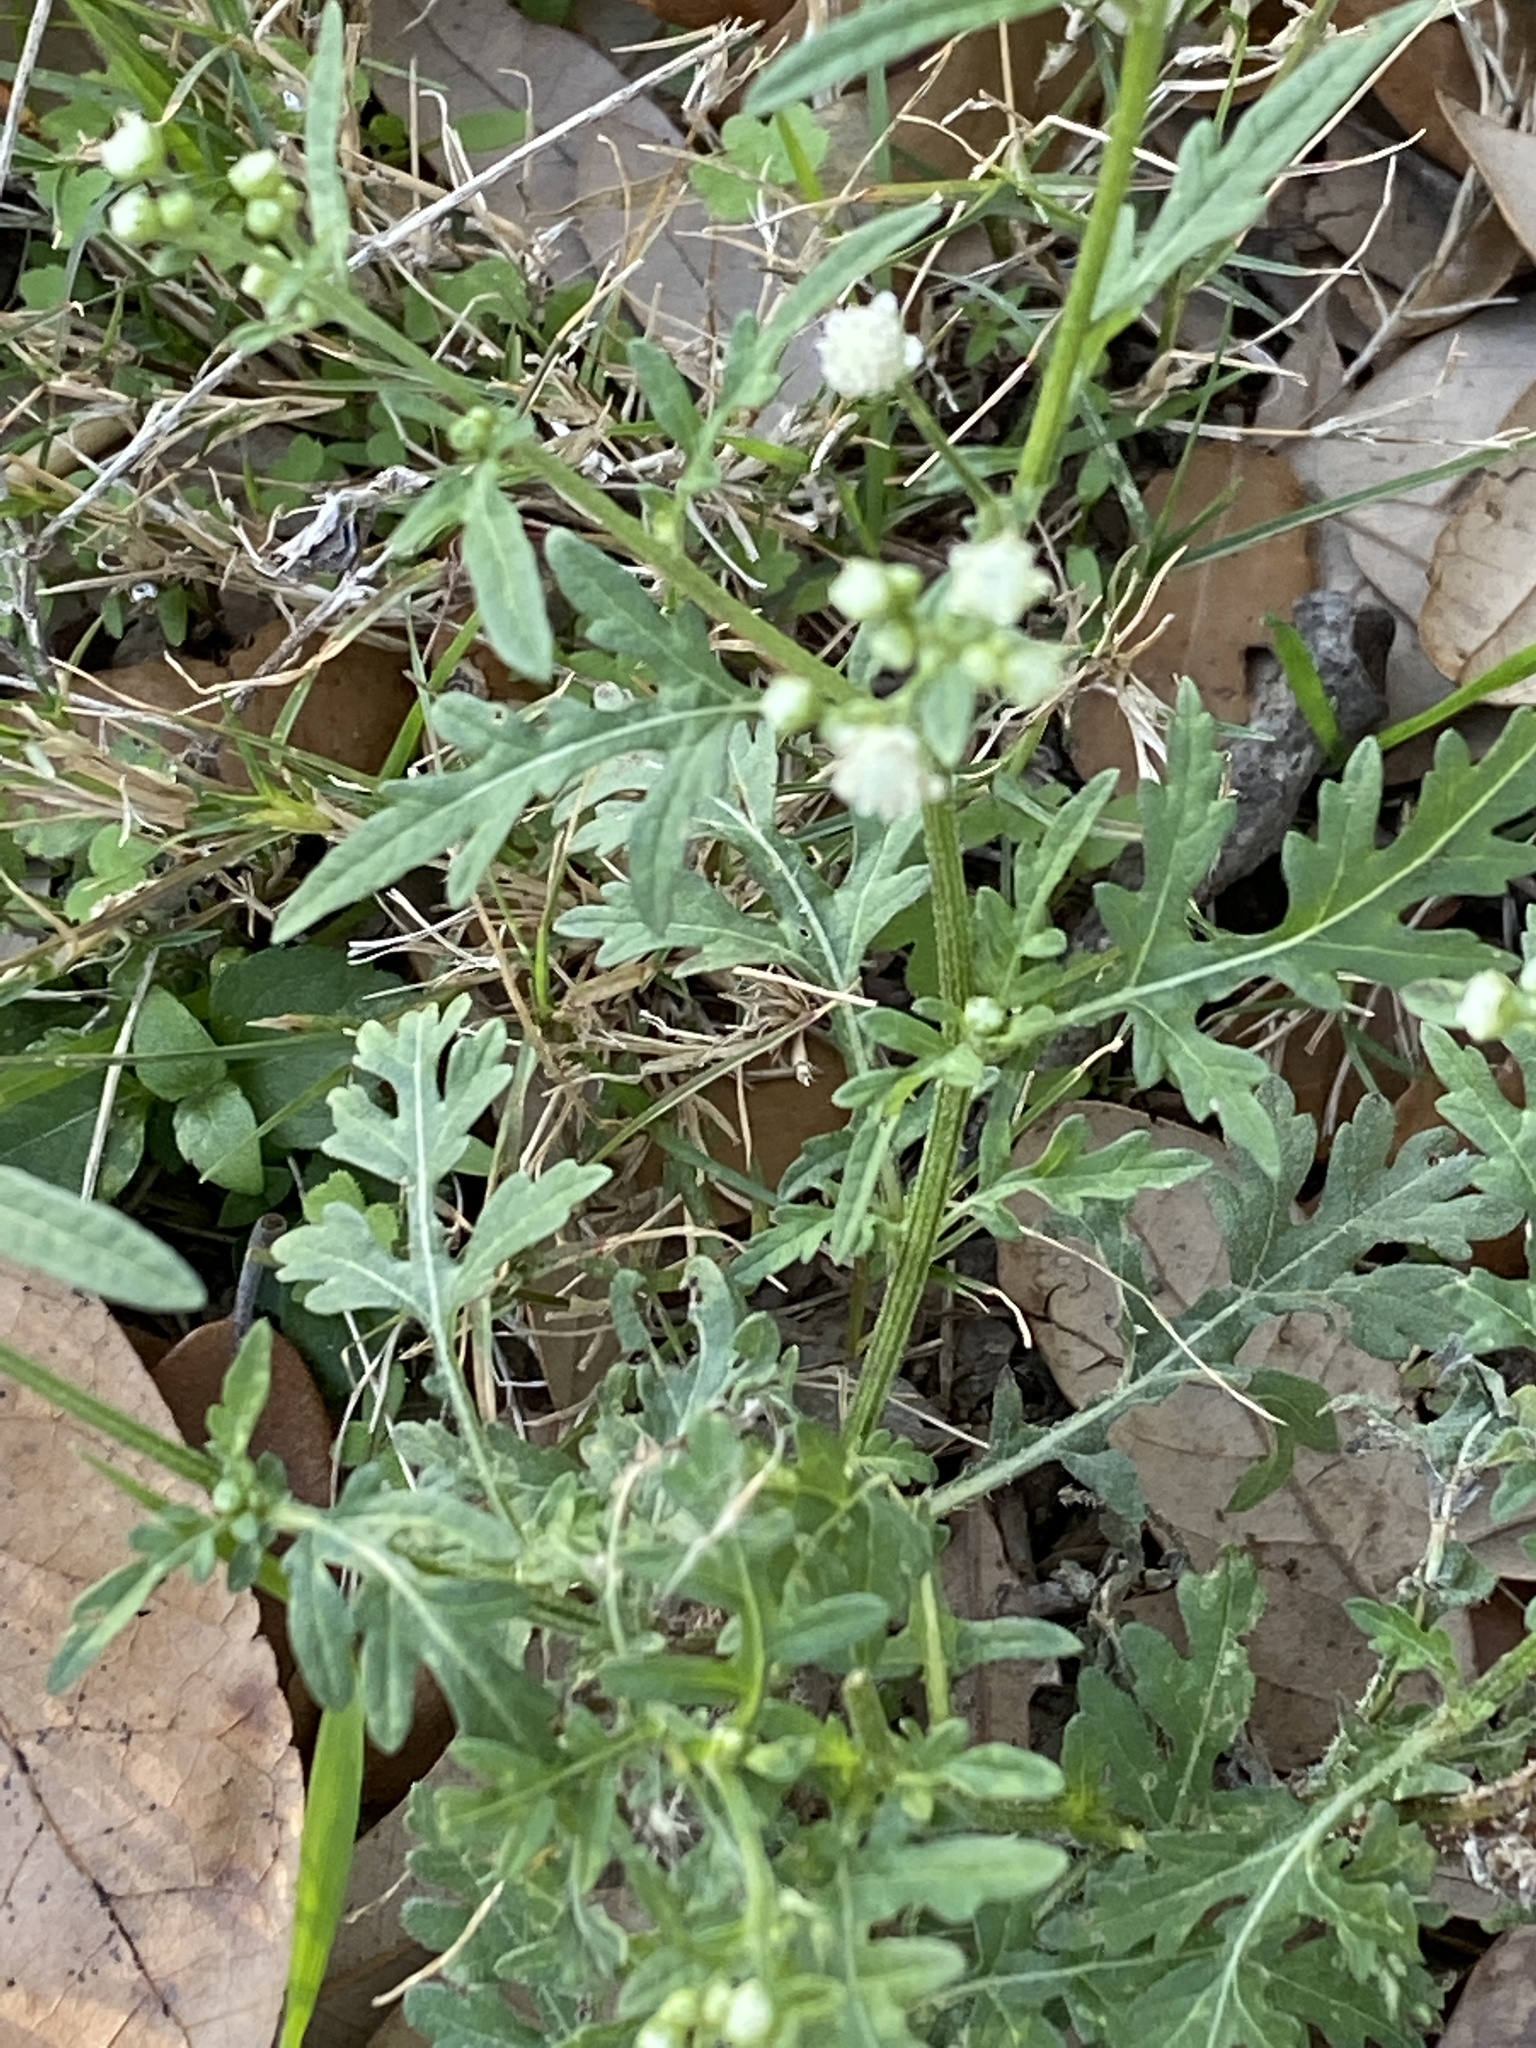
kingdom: Plantae
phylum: Tracheophyta
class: Magnoliopsida
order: Asterales
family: Asteraceae
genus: Parthenium
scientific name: Parthenium hysterophorus
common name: Santa maria feverfew
